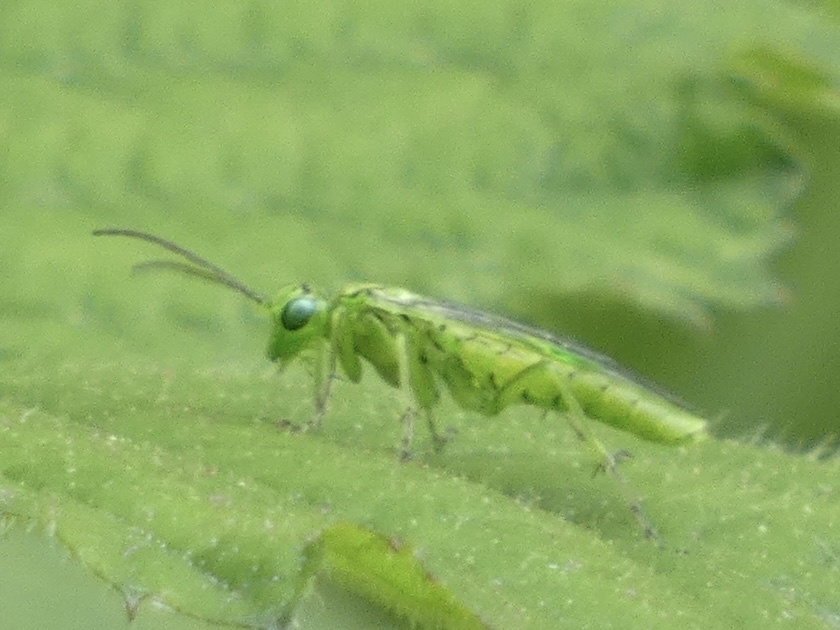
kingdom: Animalia
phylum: Arthropoda
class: Insecta
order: Hymenoptera
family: Tenthredinidae
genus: Rhogogaster
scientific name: Rhogogaster punctulata
